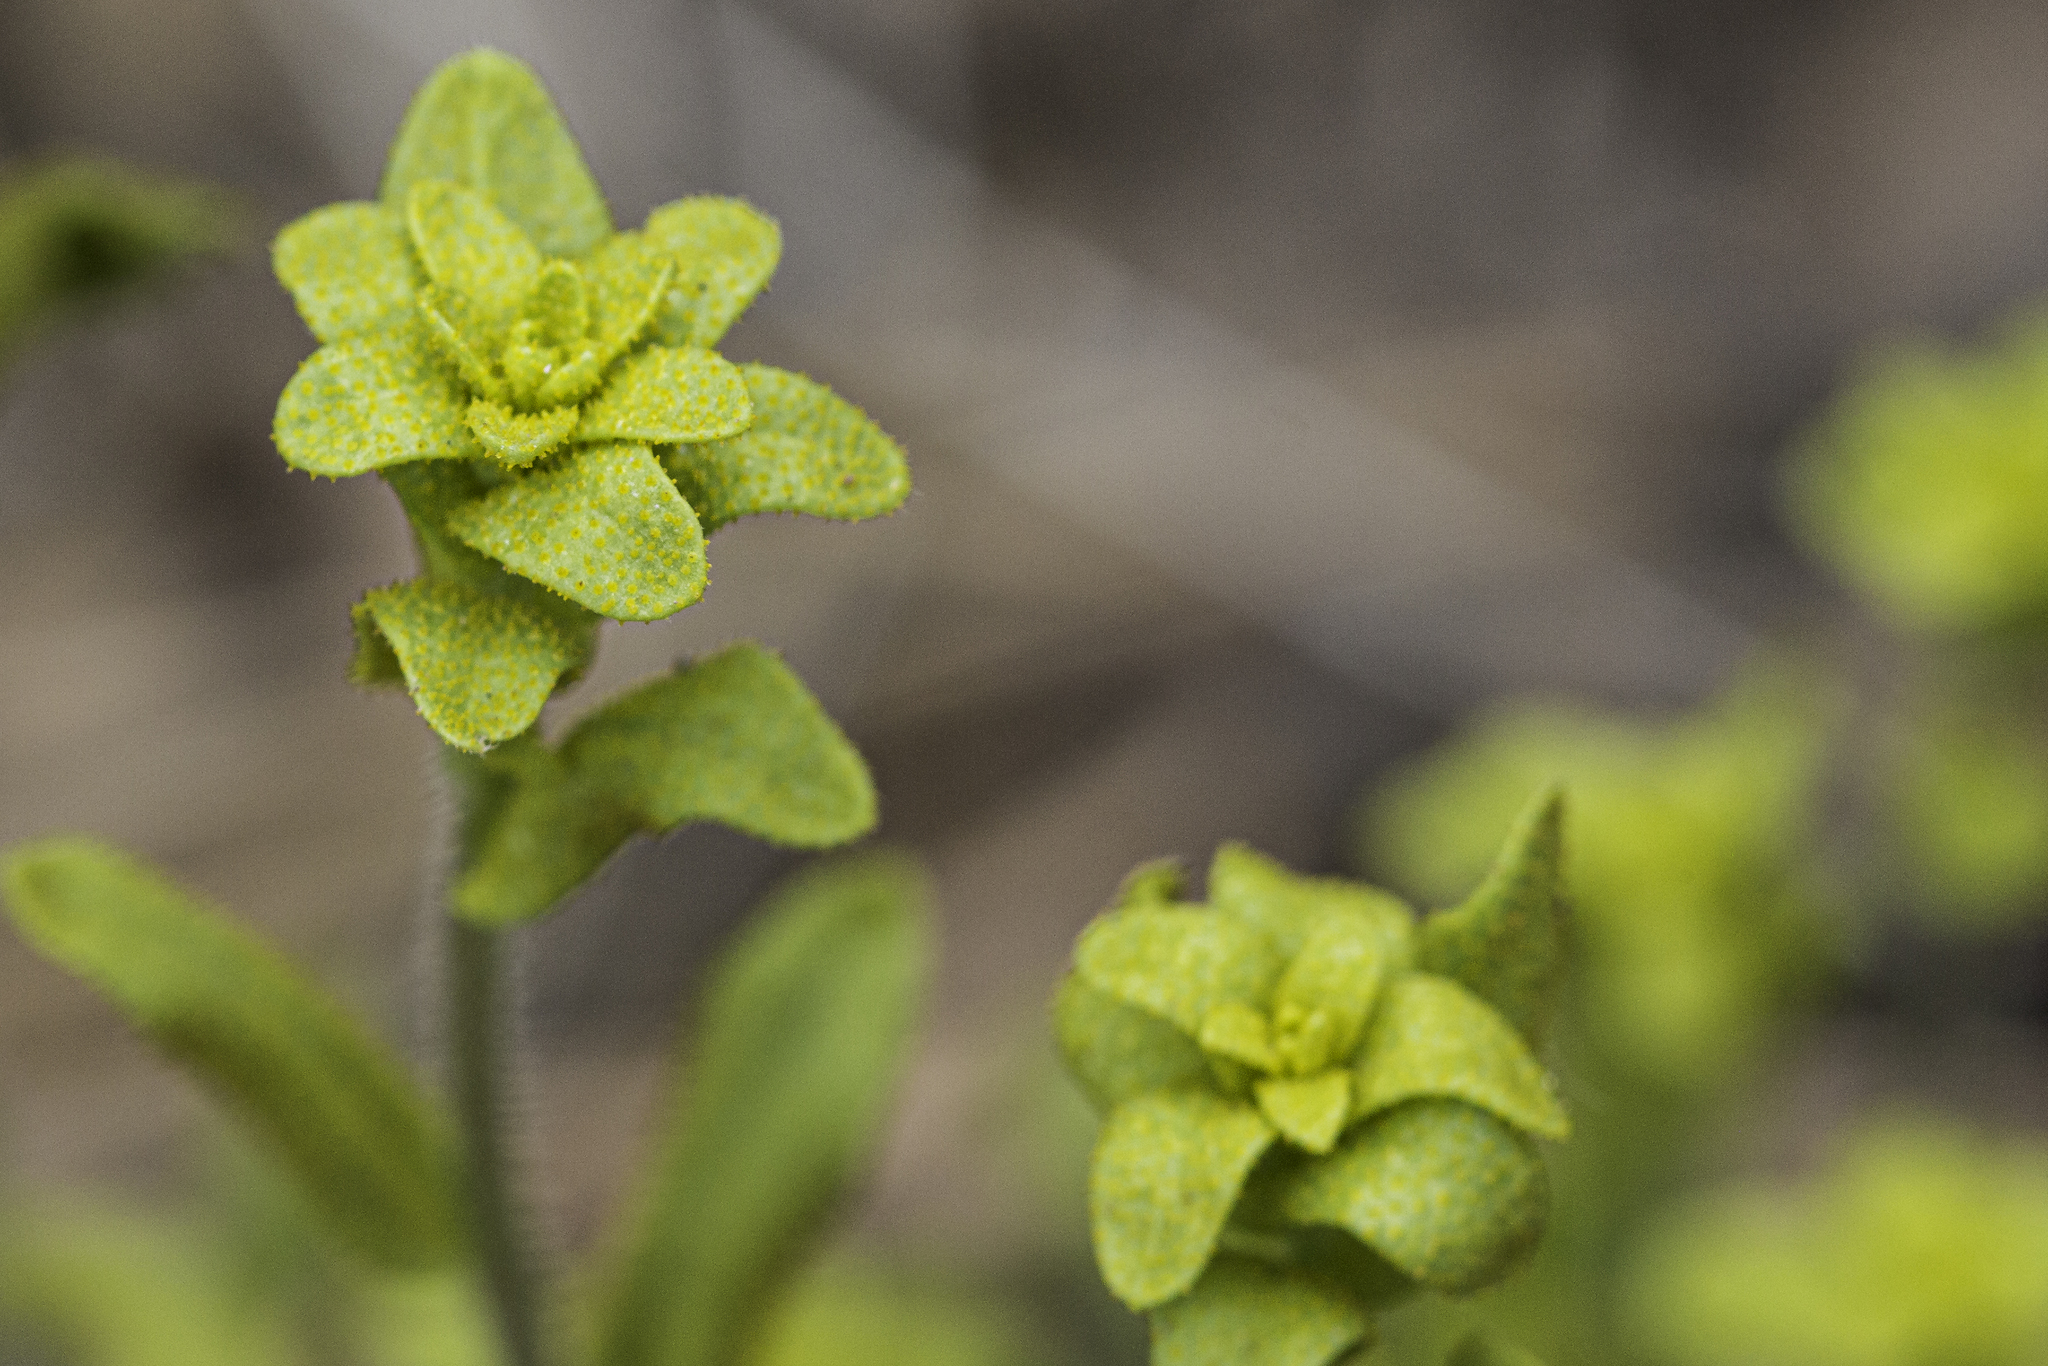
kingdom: Plantae
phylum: Tracheophyta
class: Magnoliopsida
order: Brassicales
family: Brassicaceae
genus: Boechera
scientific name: Boechera fendleri
